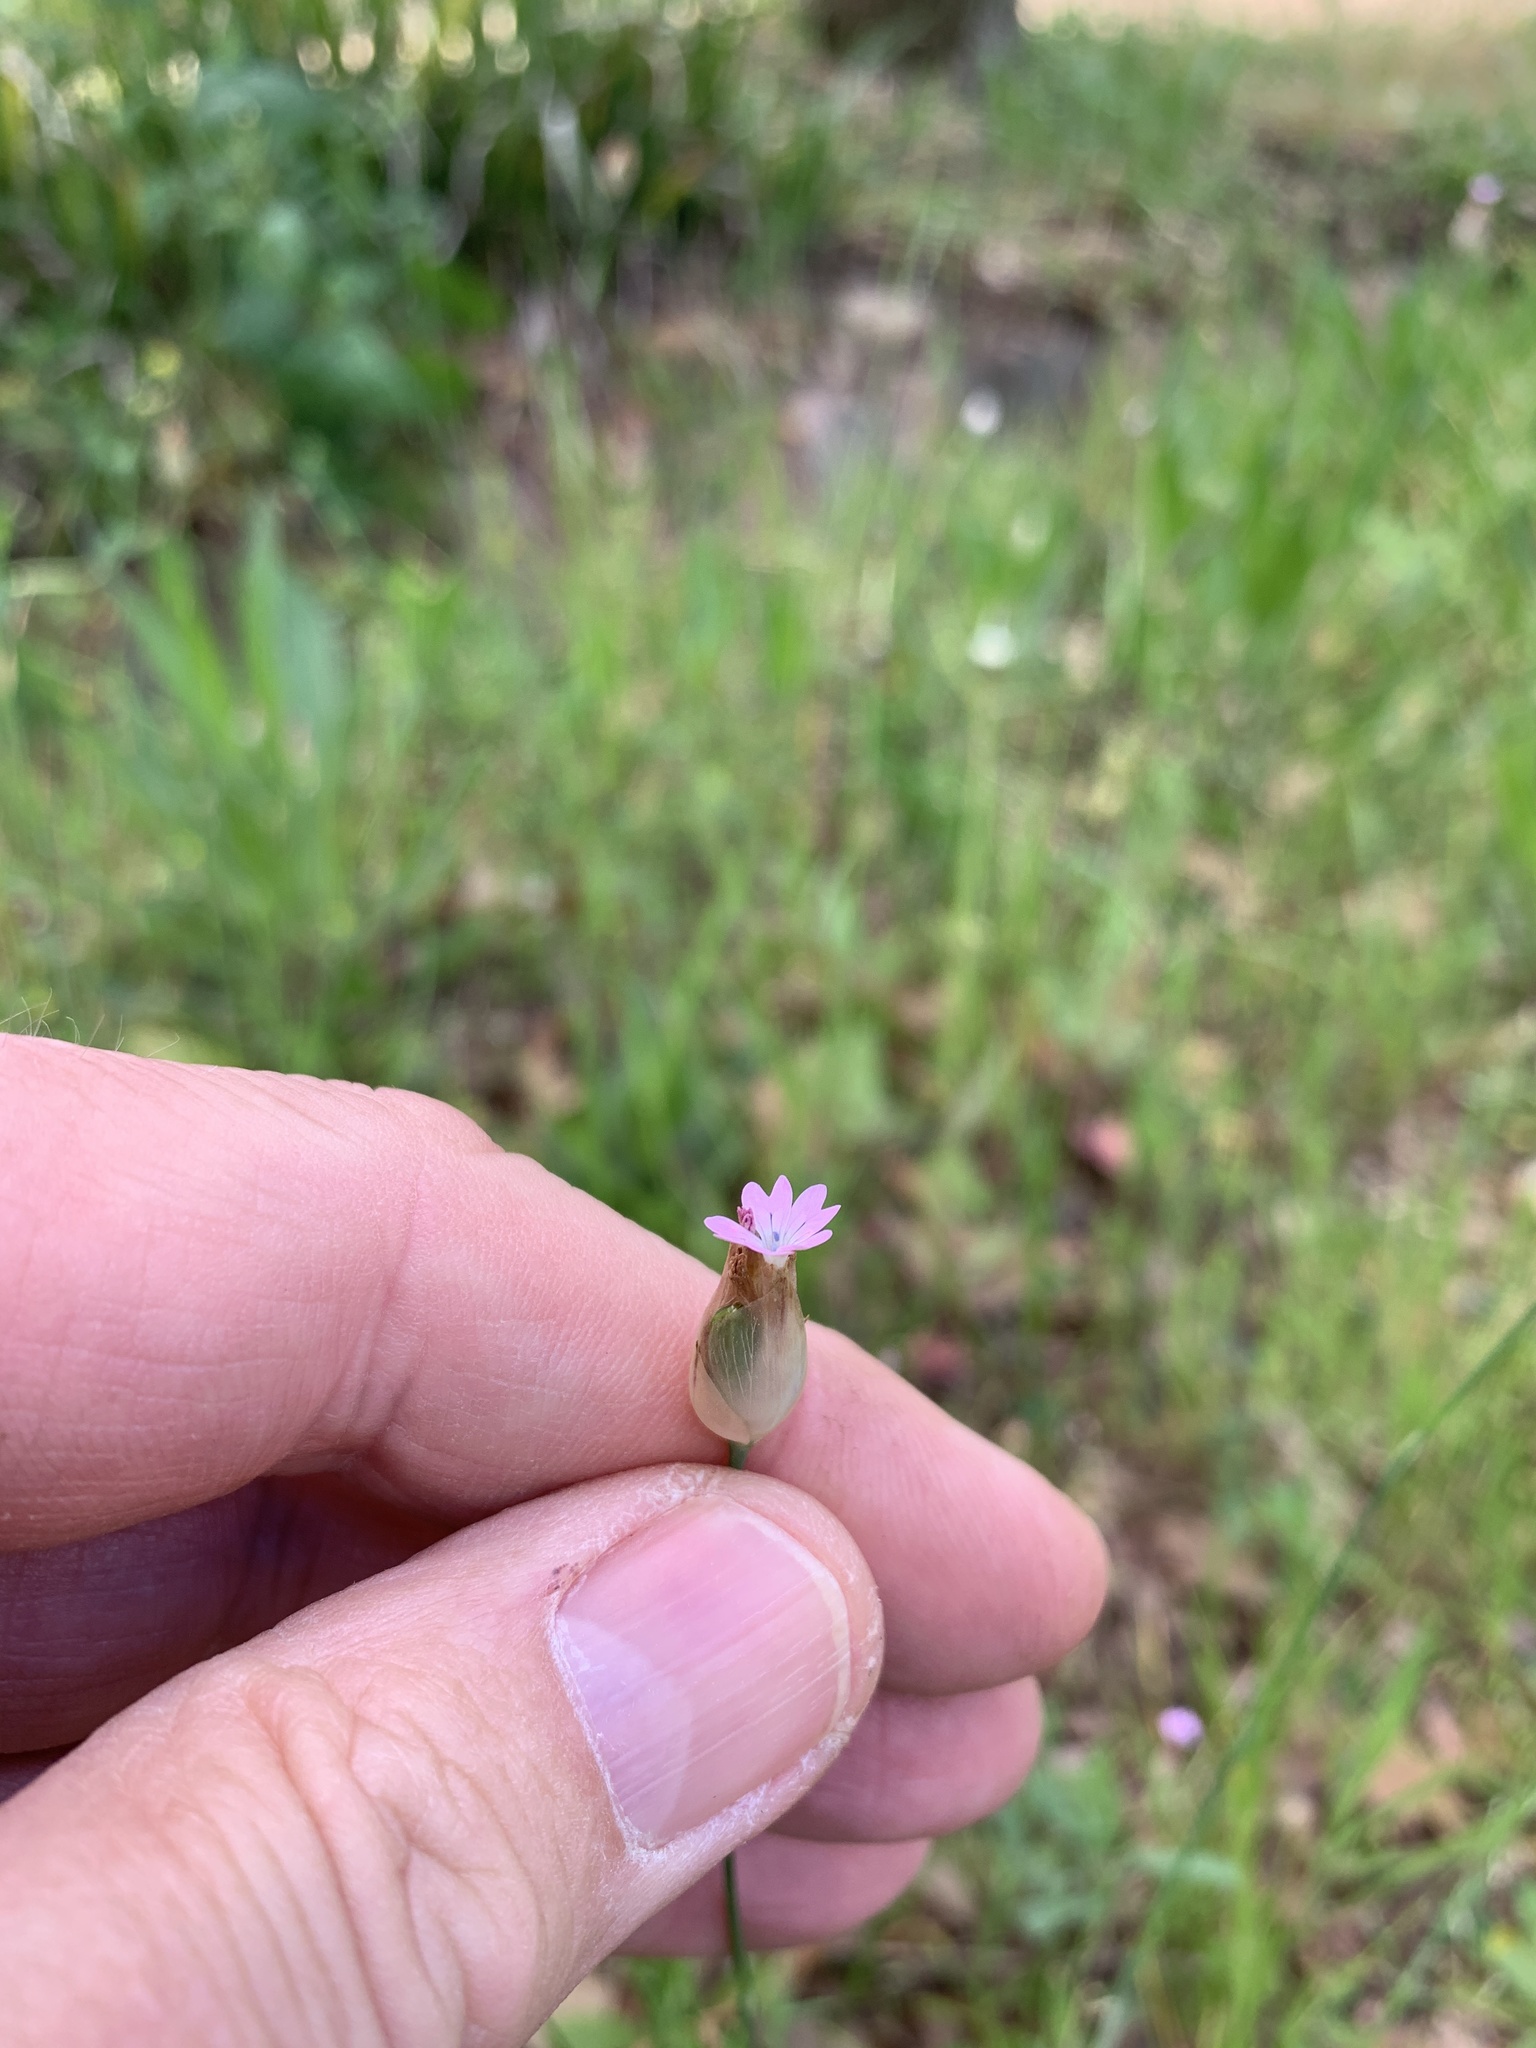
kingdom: Plantae
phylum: Tracheophyta
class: Magnoliopsida
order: Caryophyllales
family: Caryophyllaceae
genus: Petrorhagia
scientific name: Petrorhagia dubia
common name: Hairypink
